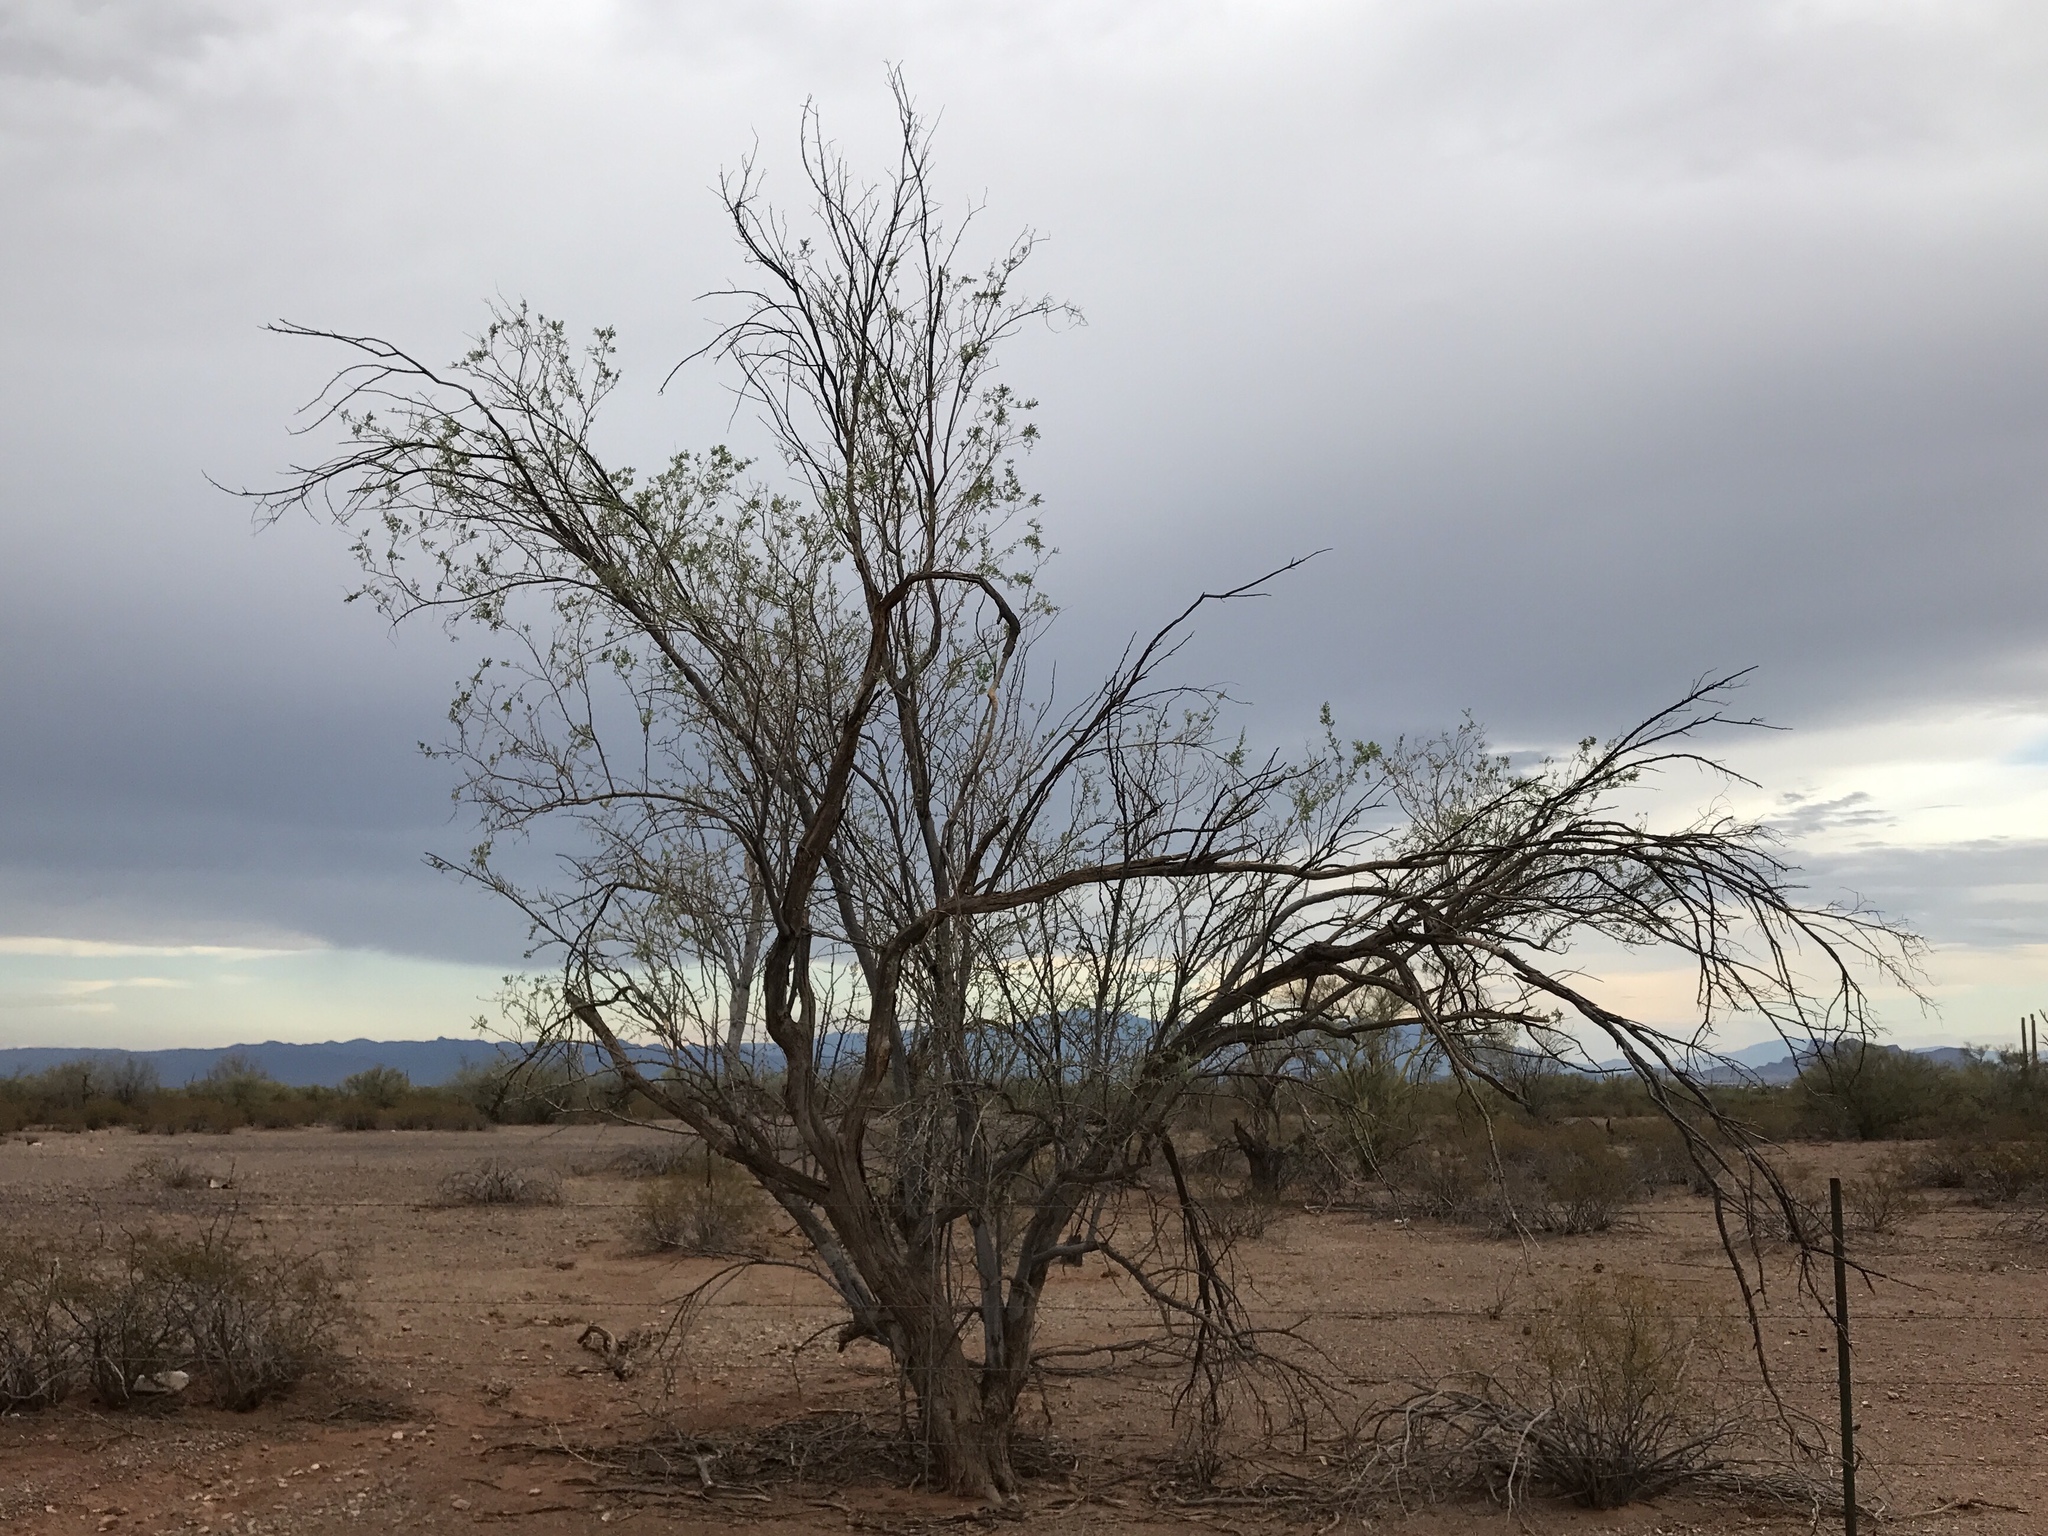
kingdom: Plantae
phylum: Tracheophyta
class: Magnoliopsida
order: Fabales
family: Fabaceae
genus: Olneya
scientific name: Olneya tesota
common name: Desert ironwood
